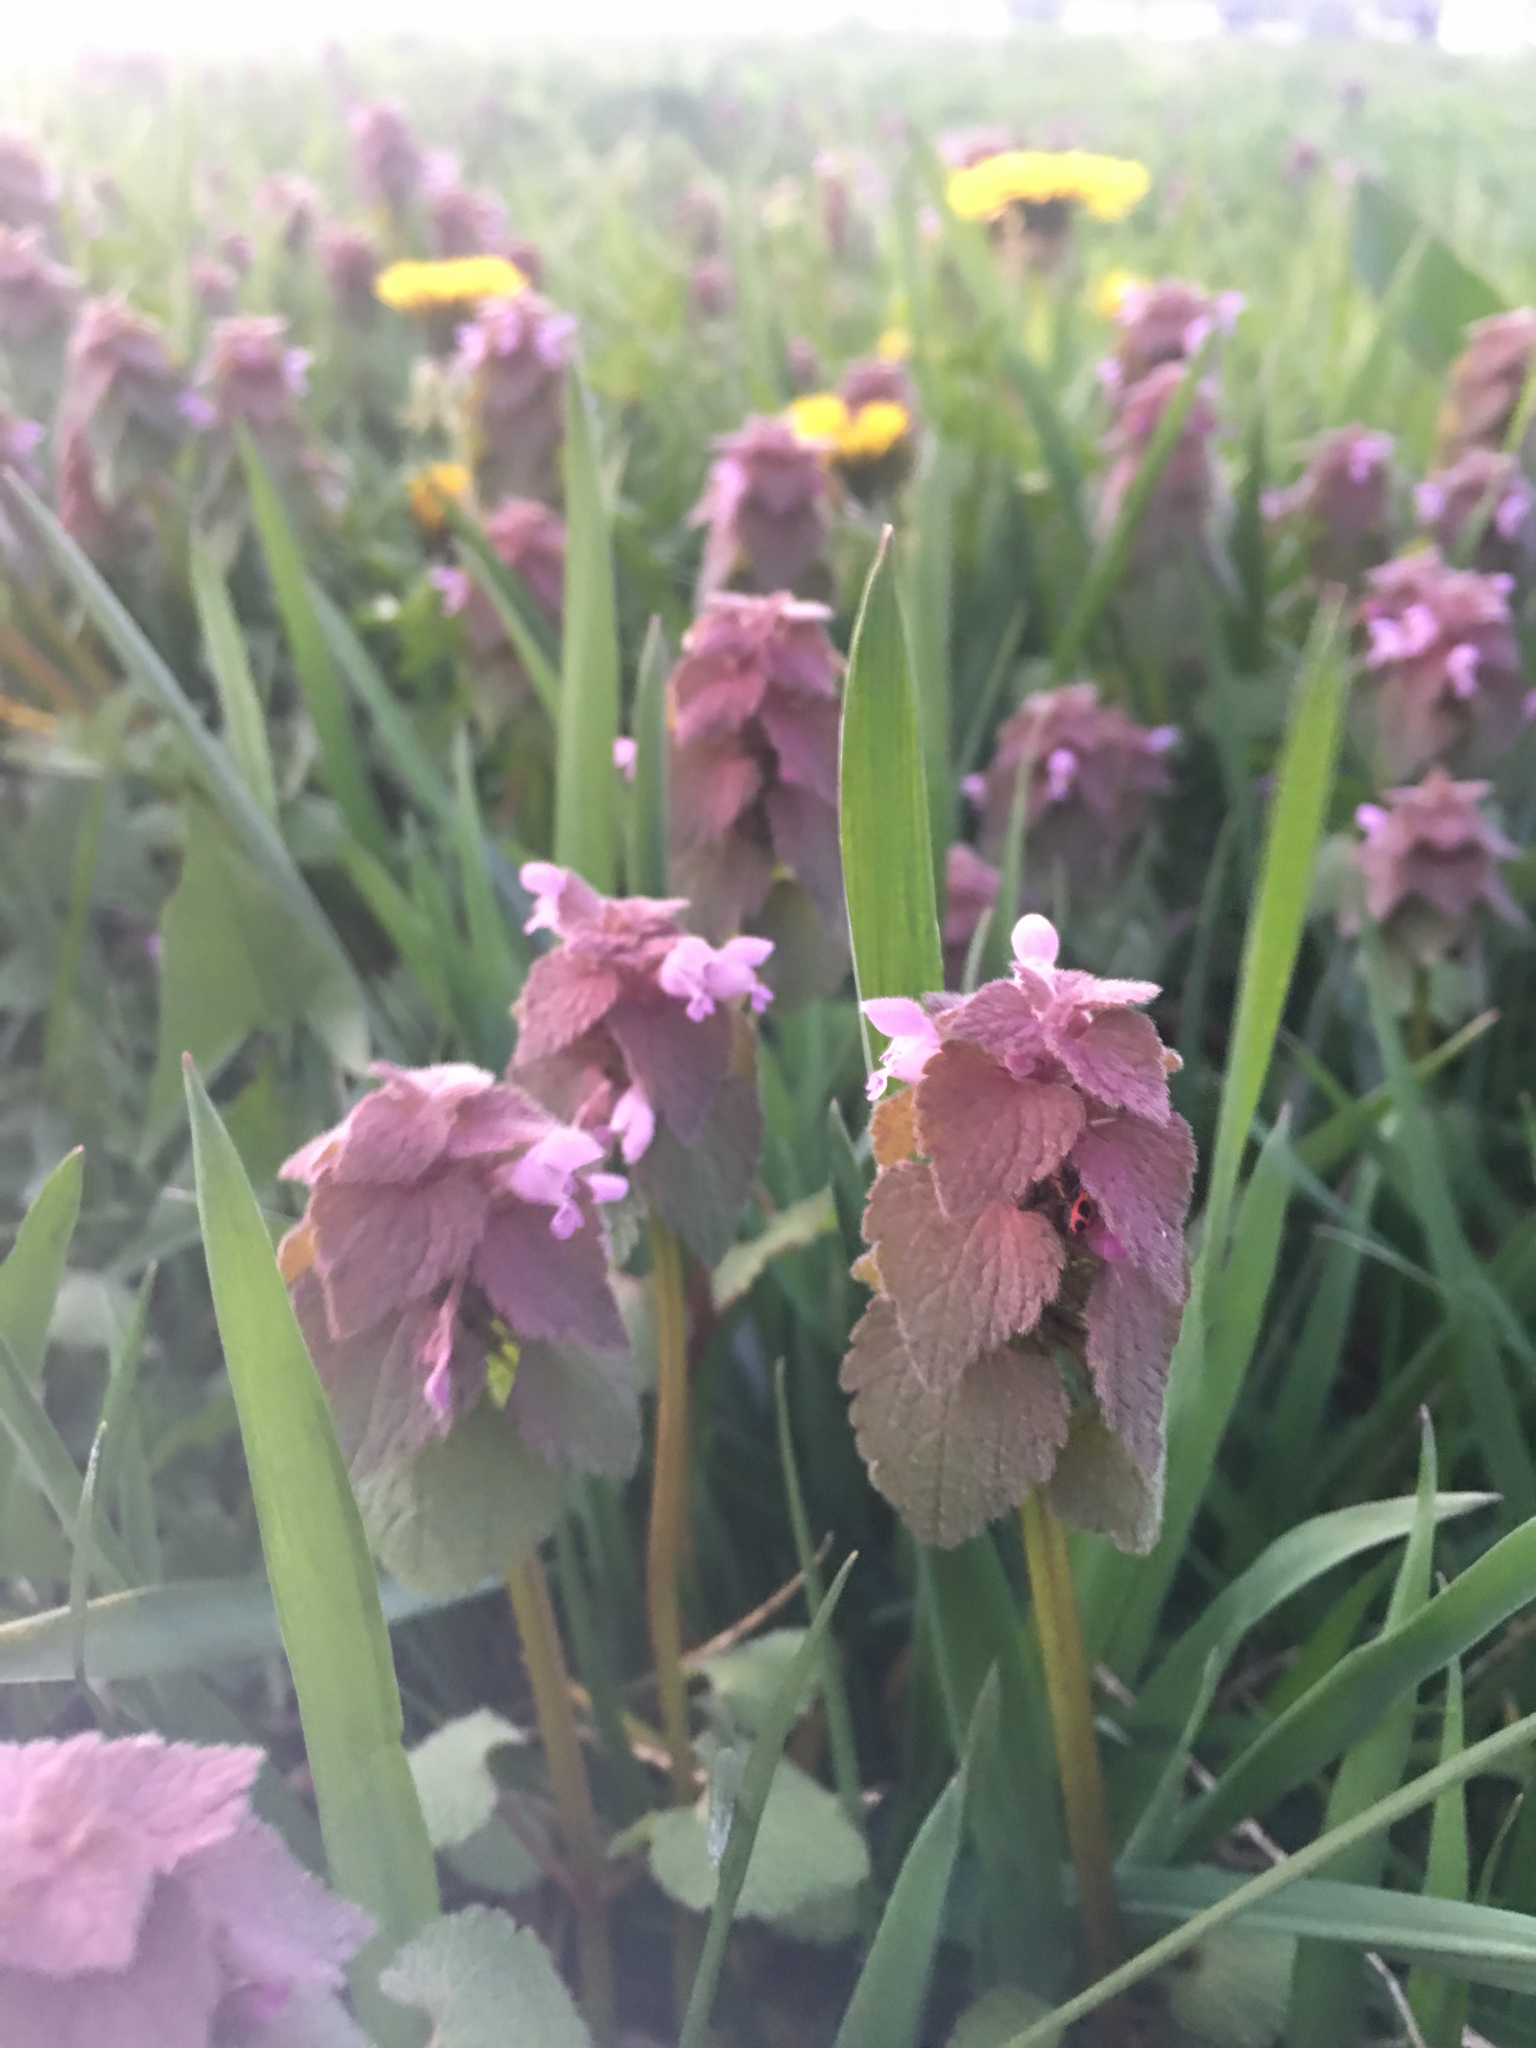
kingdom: Plantae
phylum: Tracheophyta
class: Magnoliopsida
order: Lamiales
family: Lamiaceae
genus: Lamium
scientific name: Lamium purpureum
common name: Red dead-nettle
